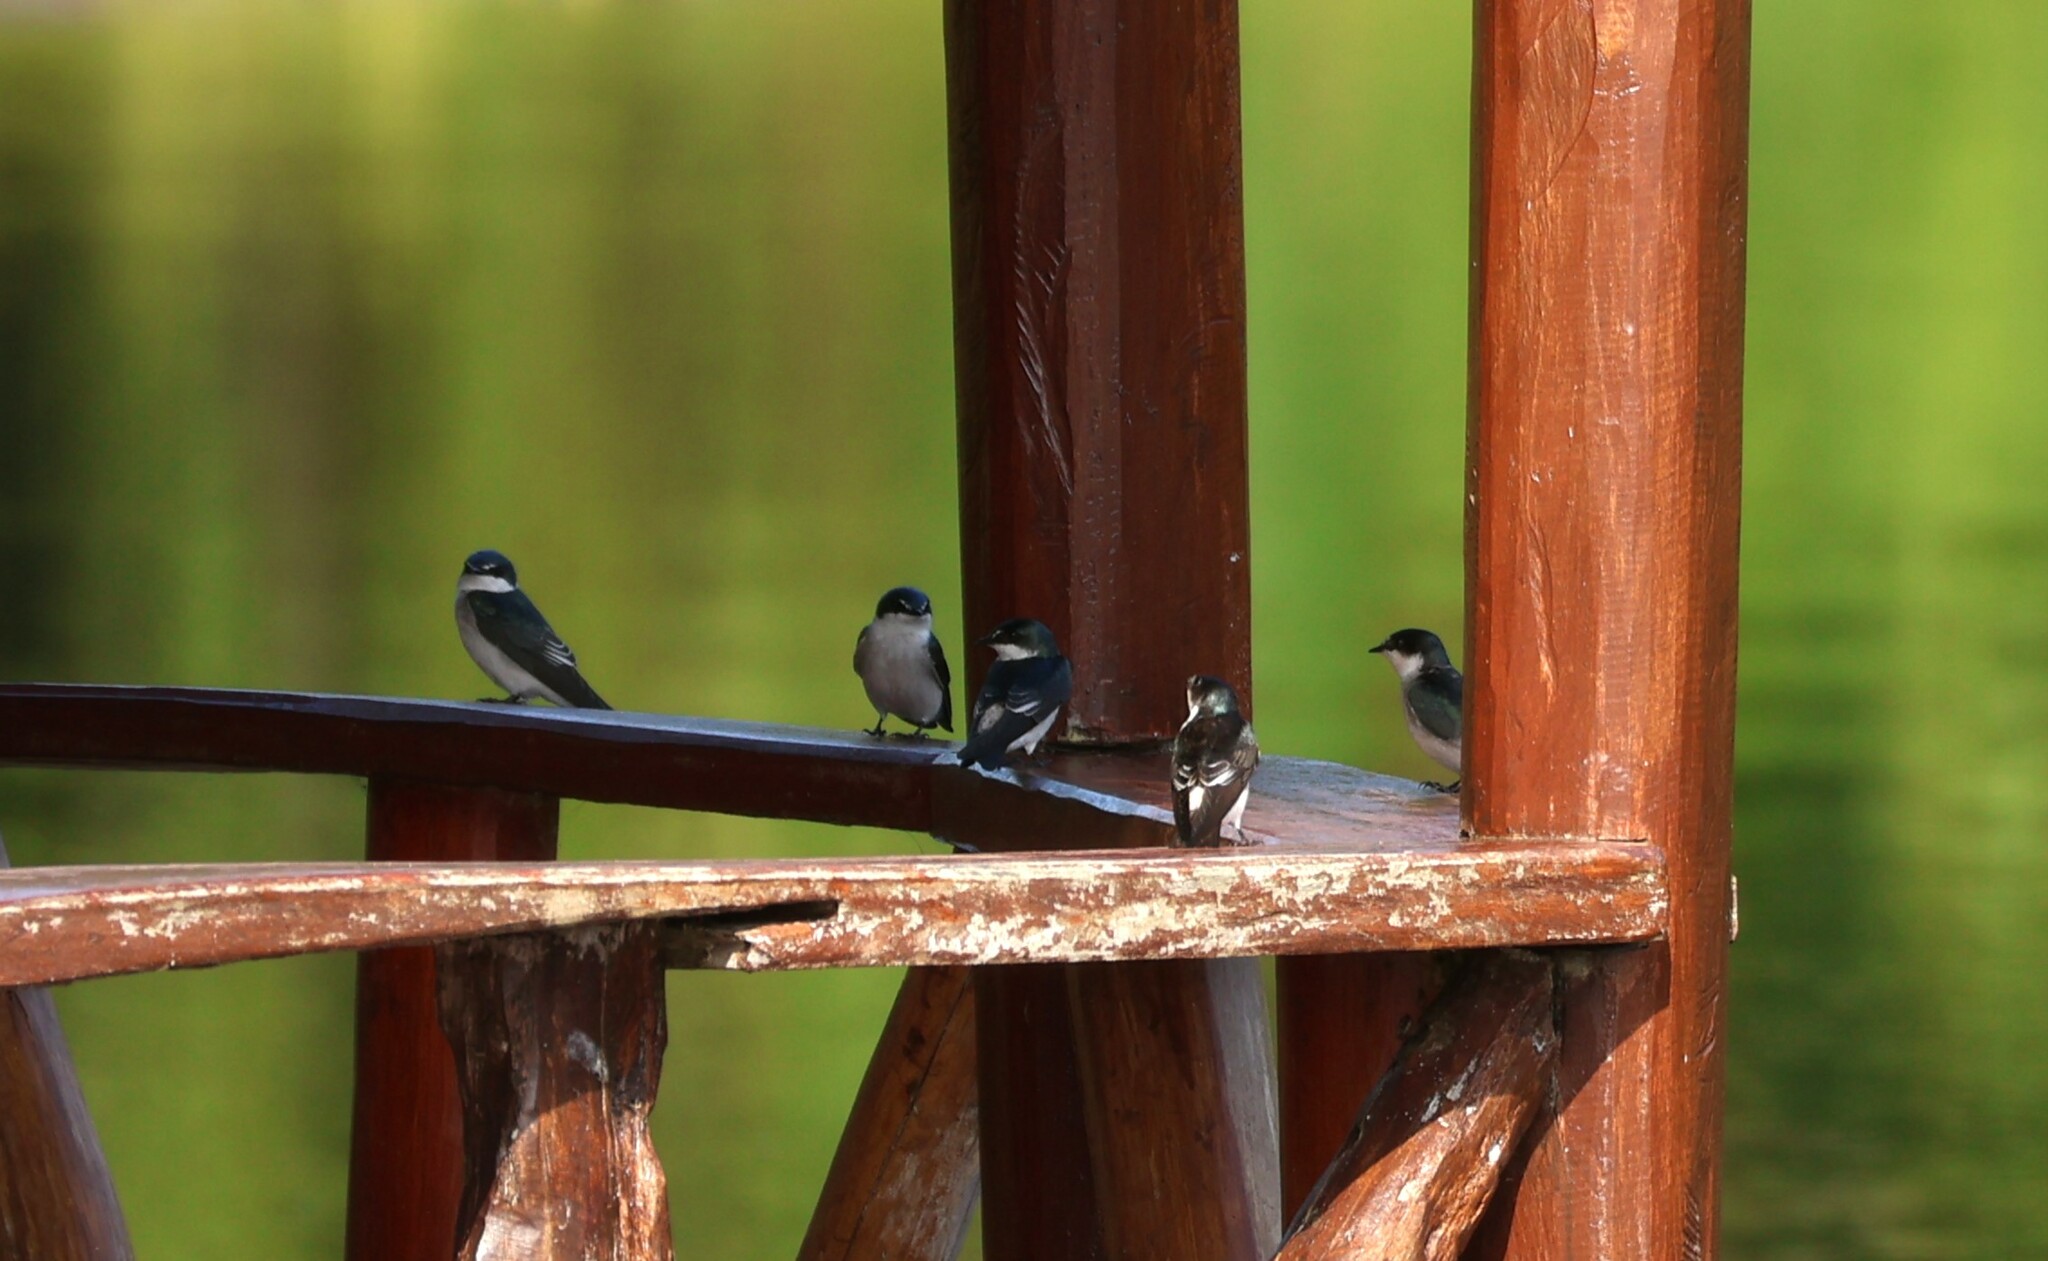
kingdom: Animalia
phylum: Chordata
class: Aves
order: Passeriformes
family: Hirundinidae
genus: Tachycineta
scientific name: Tachycineta albilinea
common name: Mangrove swallow
